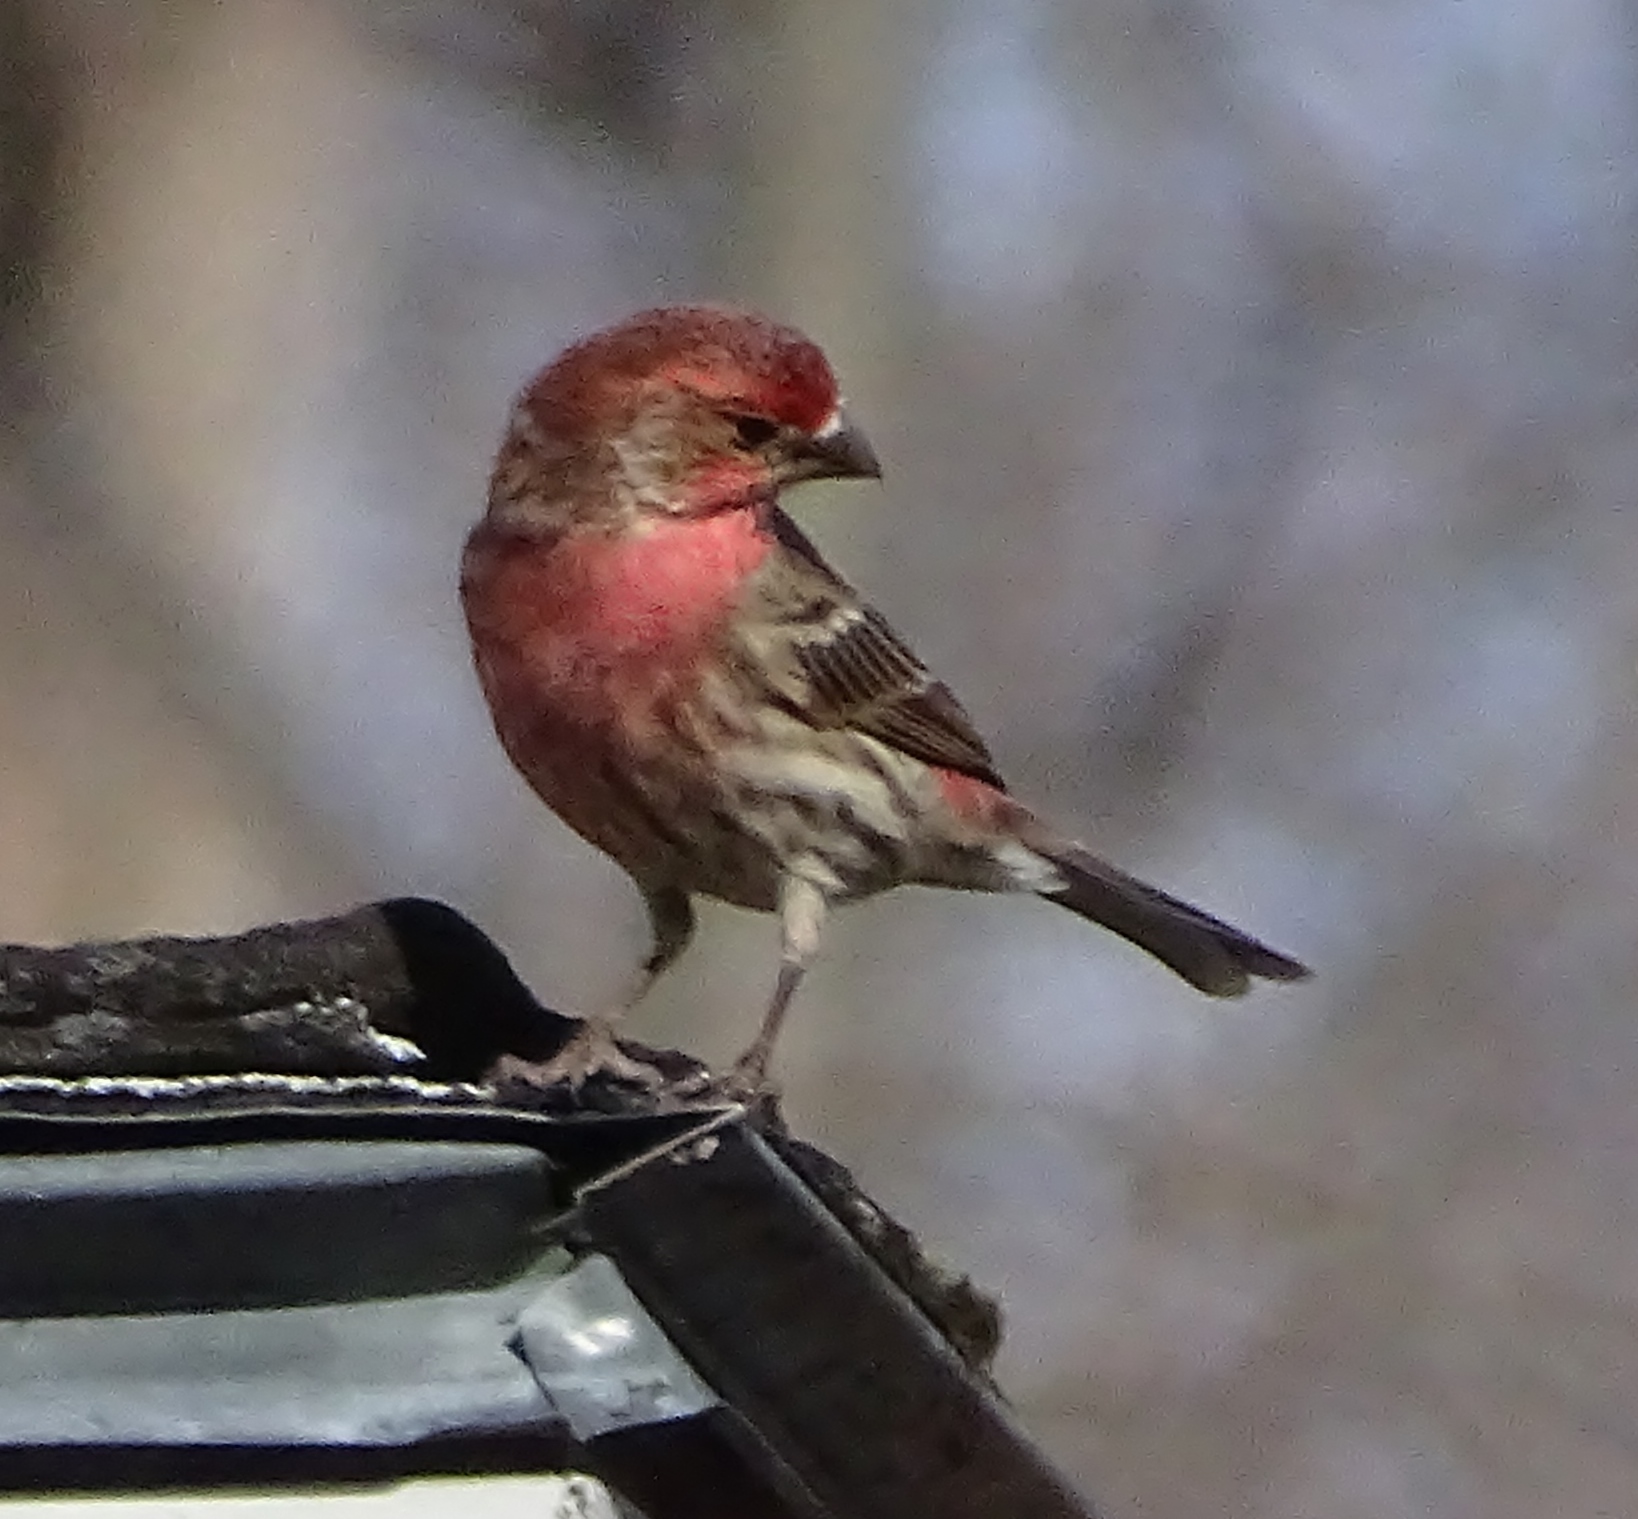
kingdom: Animalia
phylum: Chordata
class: Aves
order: Passeriformes
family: Fringillidae
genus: Haemorhous
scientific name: Haemorhous mexicanus
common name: House finch
